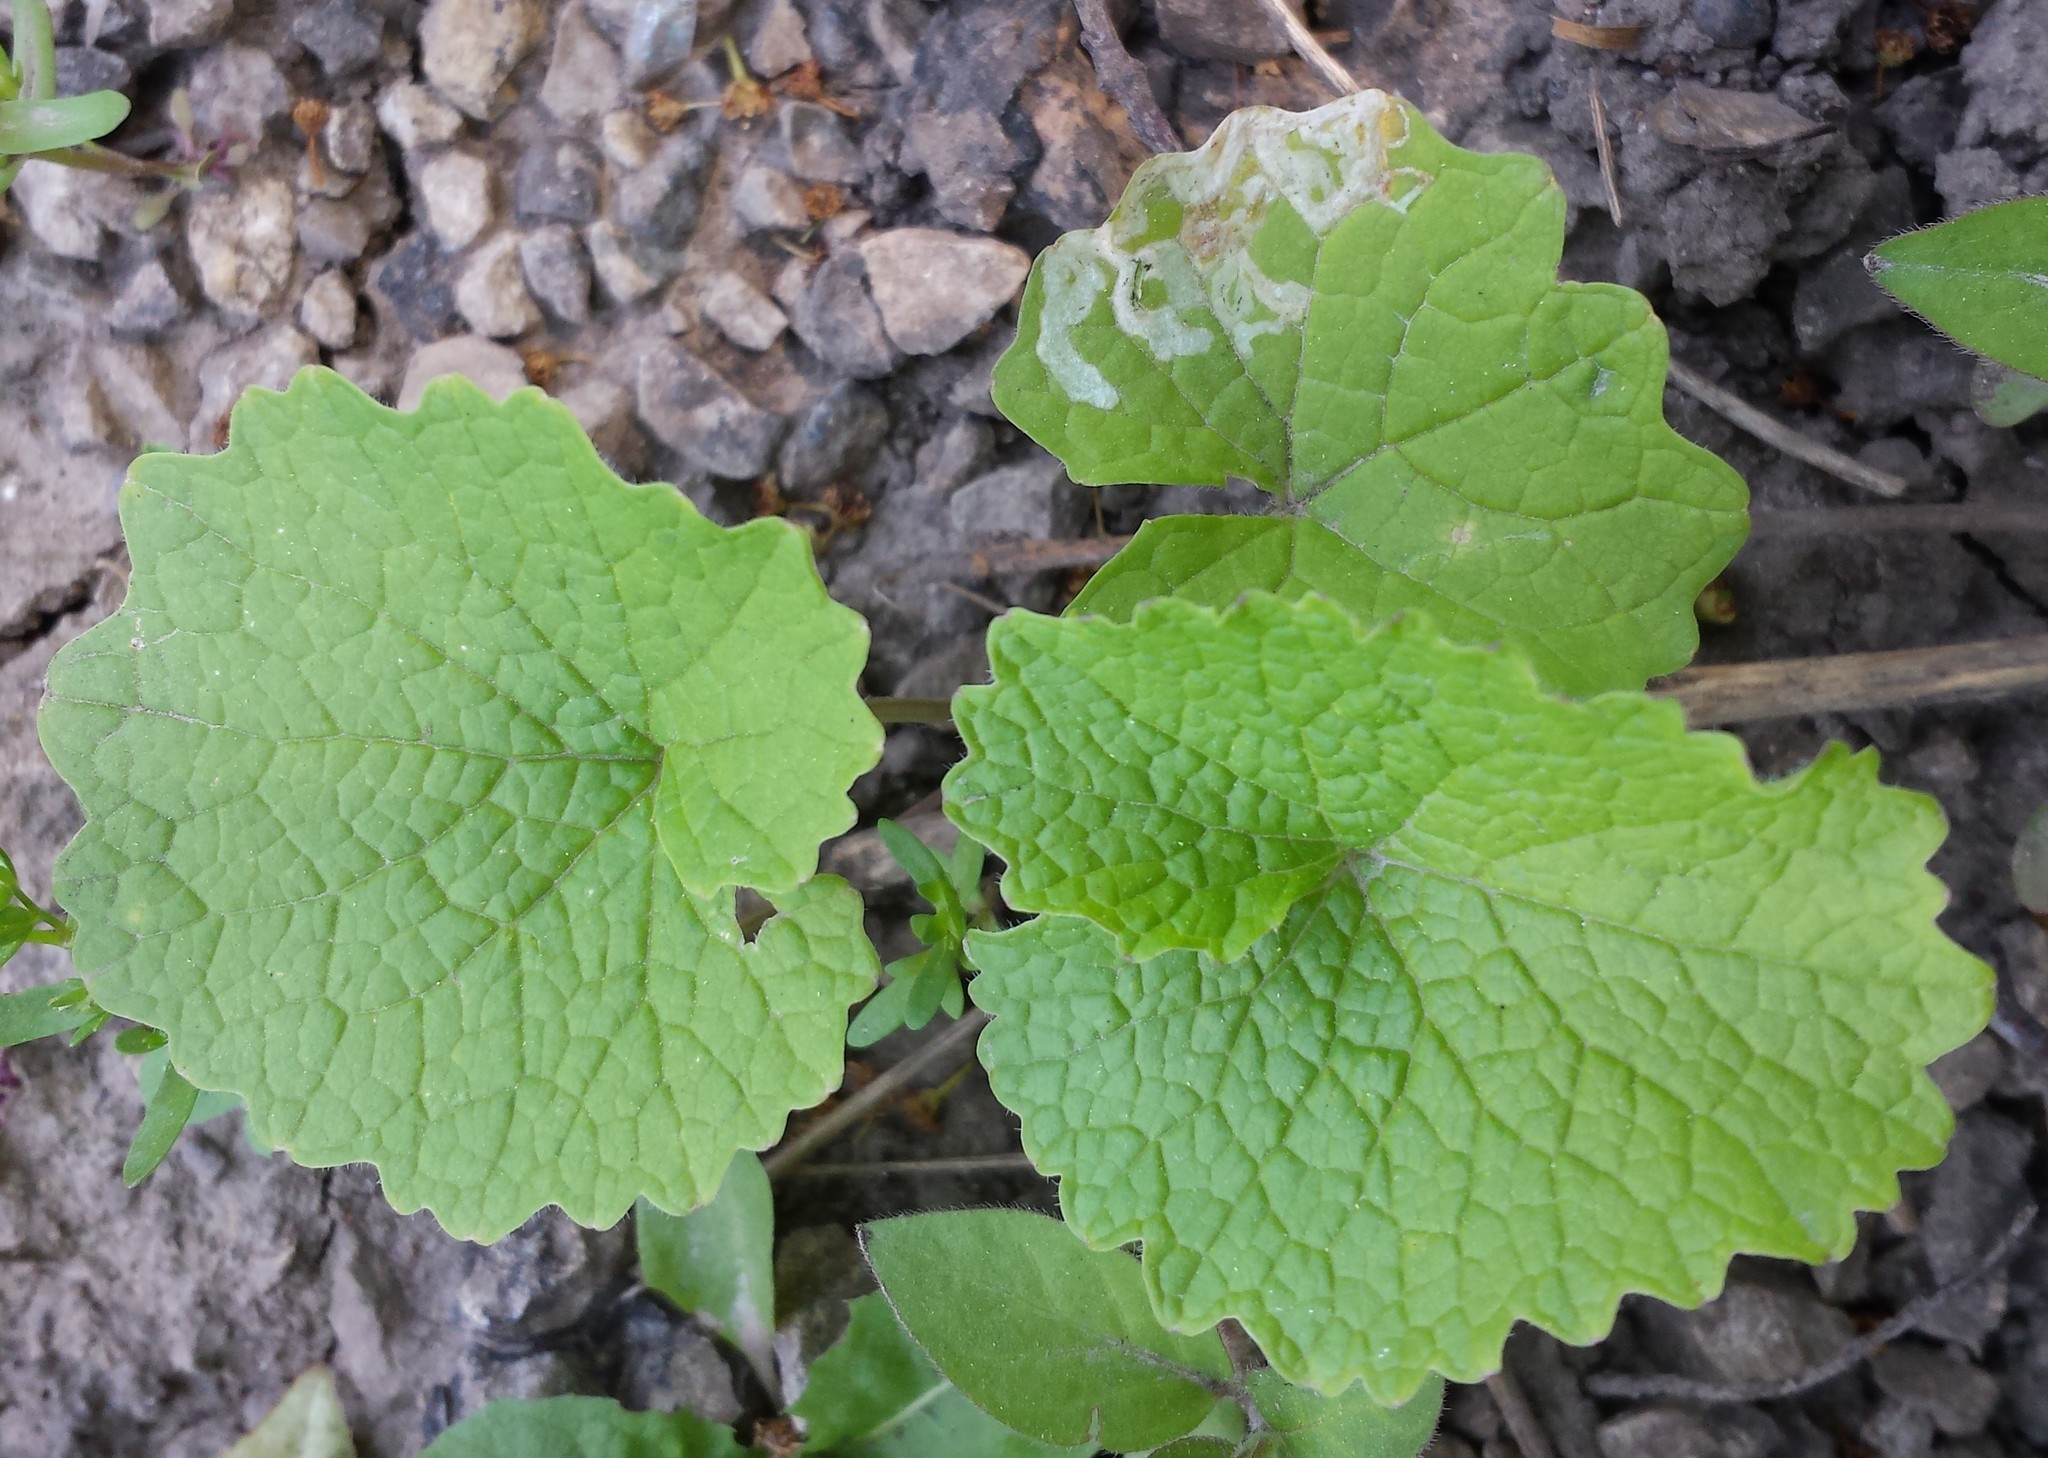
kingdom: Plantae
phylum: Tracheophyta
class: Magnoliopsida
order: Brassicales
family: Brassicaceae
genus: Alliaria
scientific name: Alliaria petiolata
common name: Garlic mustard
